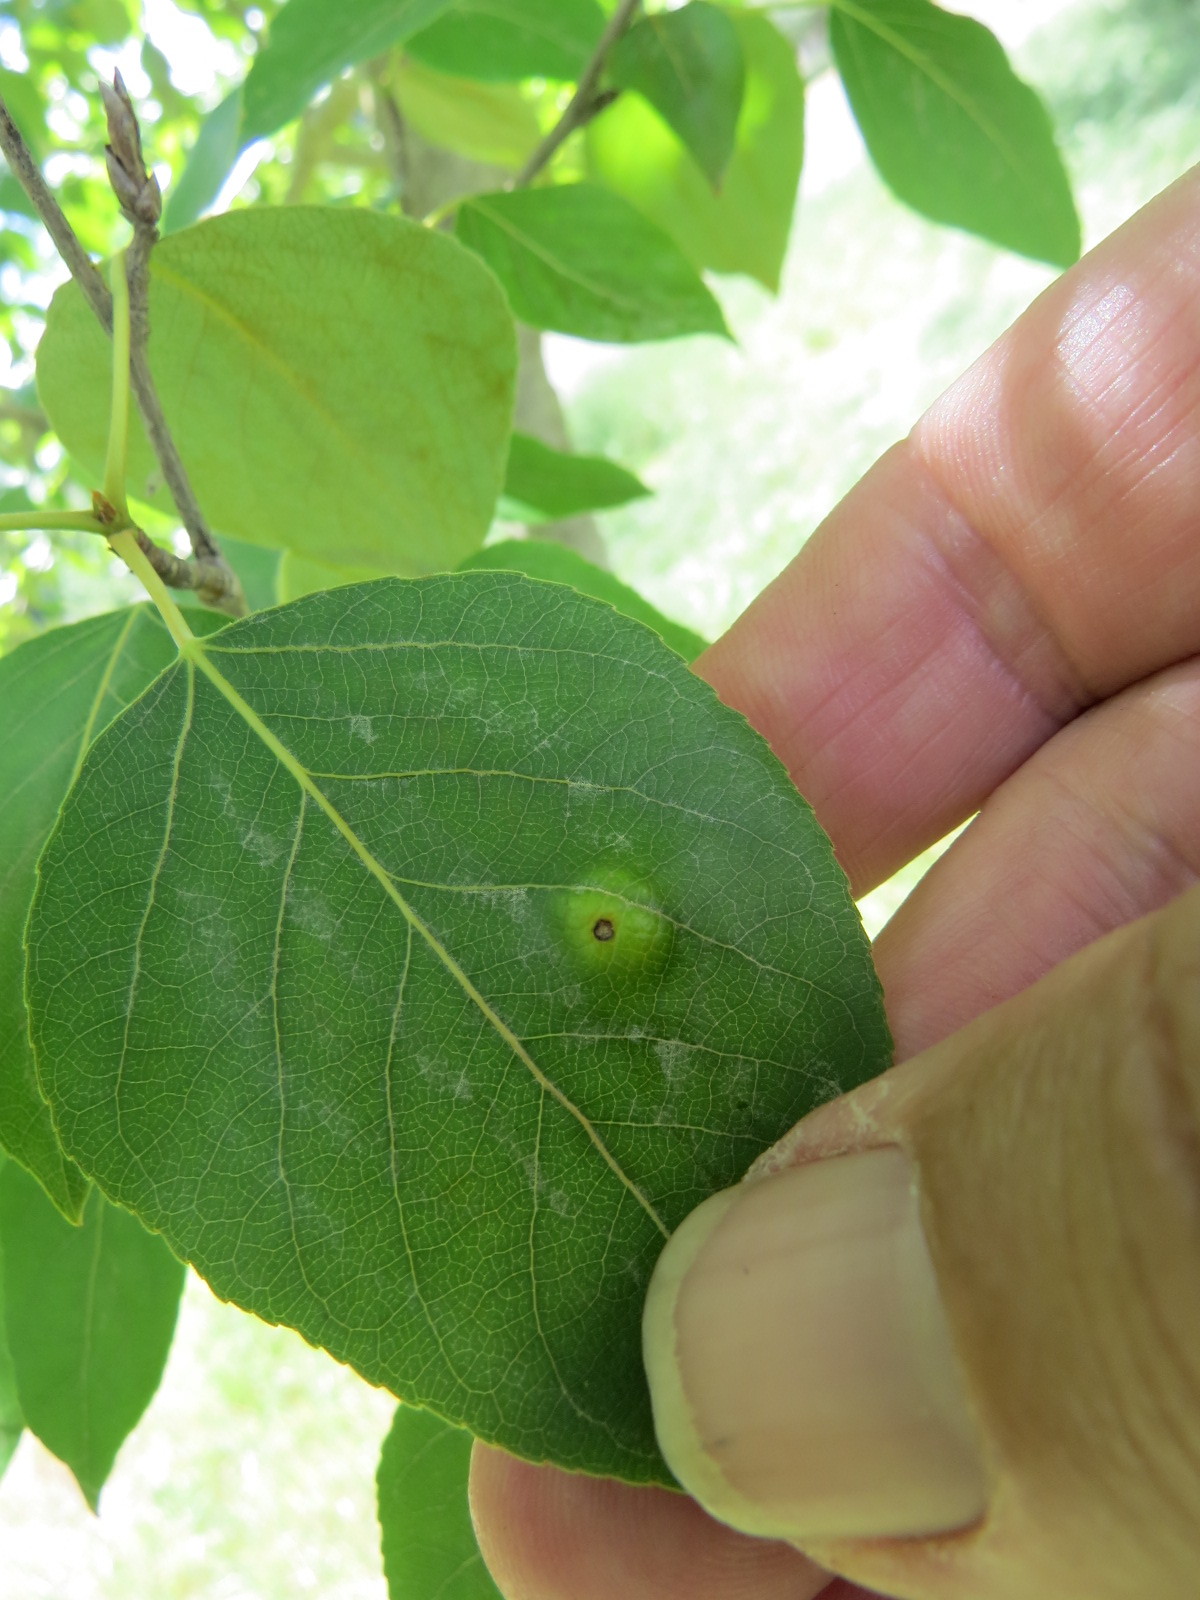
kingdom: Fungi
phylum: Ascomycota
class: Taphrinomycetes
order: Taphrinales
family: Taphrinaceae
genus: Taphrina
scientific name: Taphrina populi-salicis
